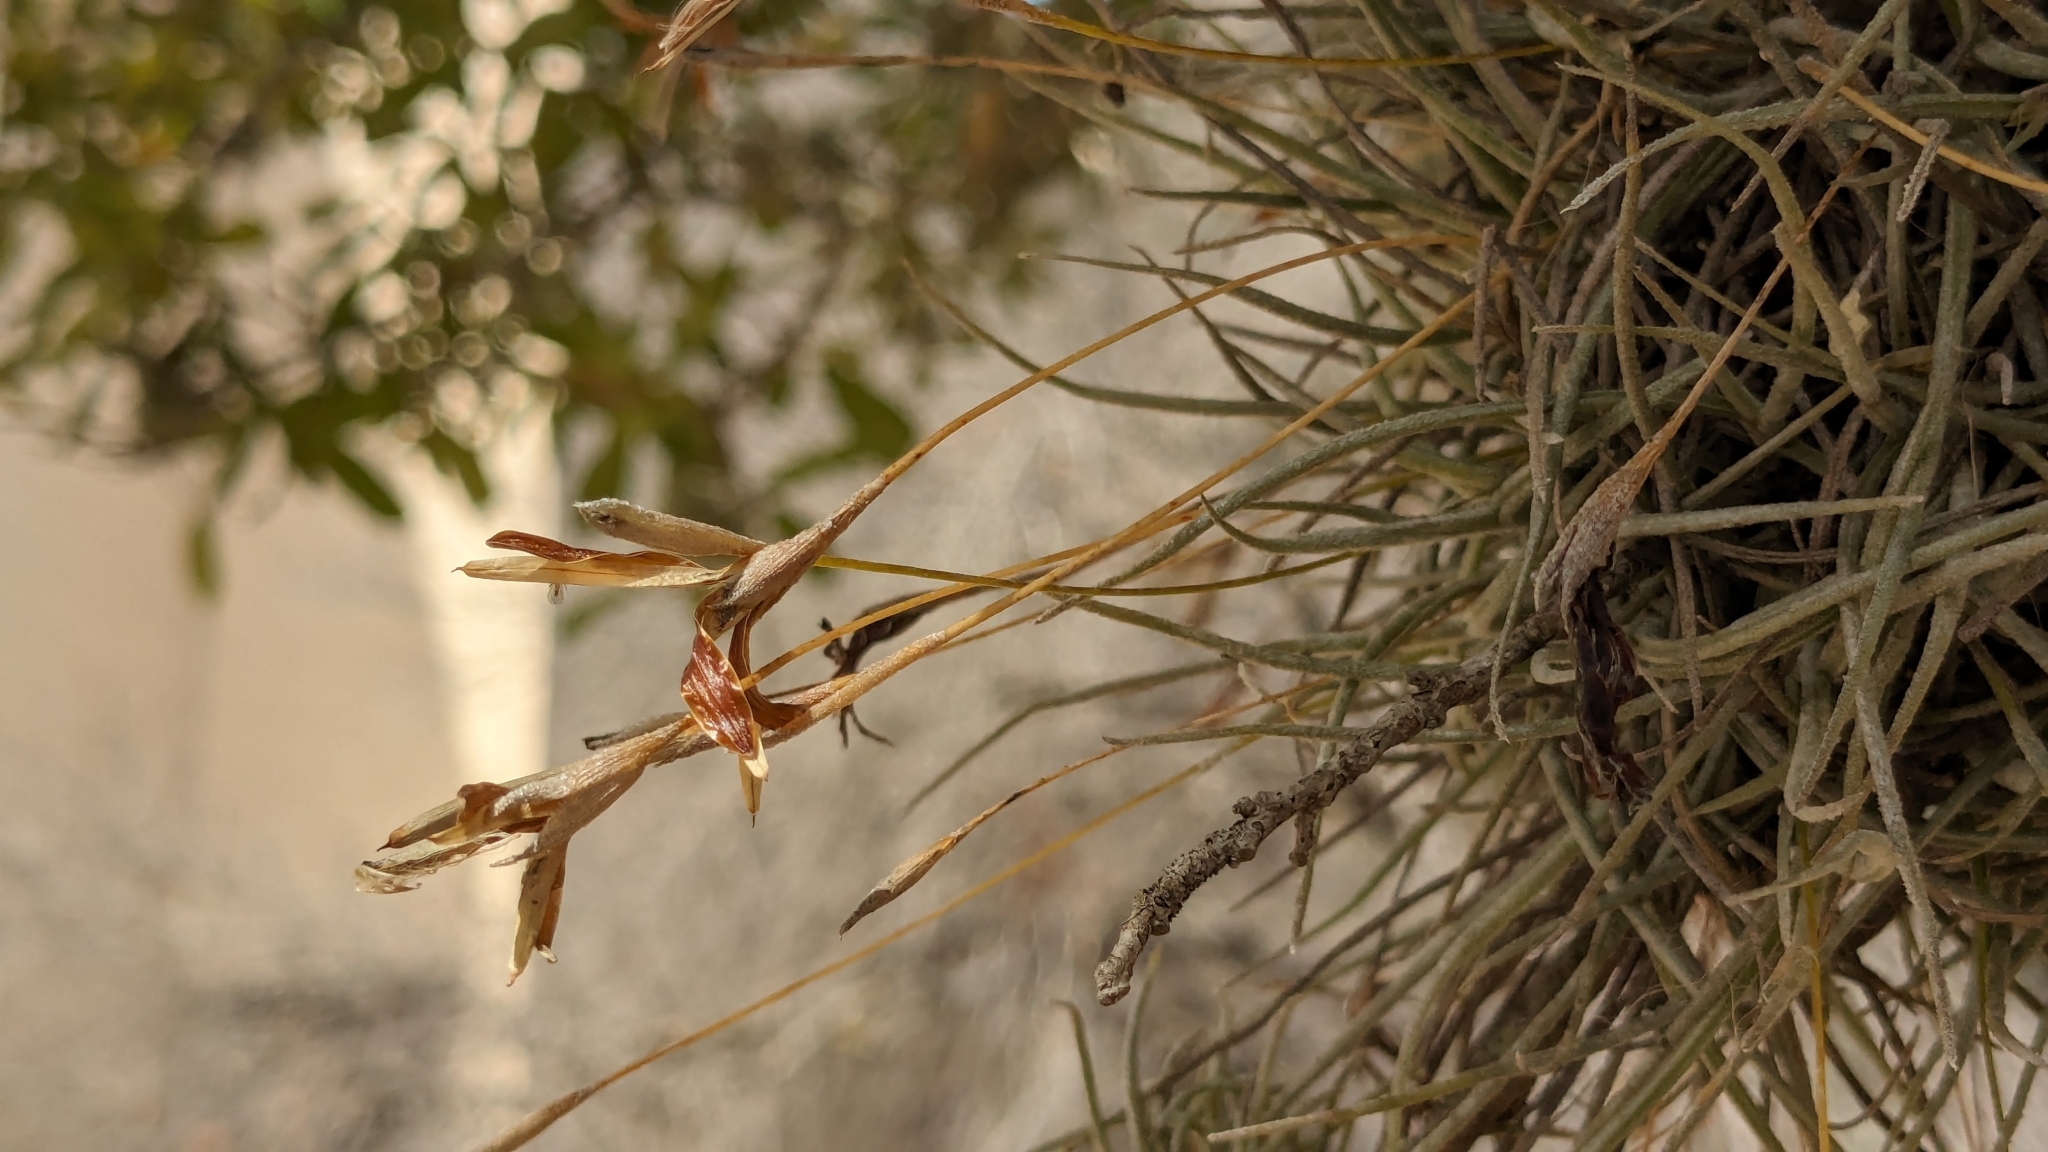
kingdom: Plantae
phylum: Tracheophyta
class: Liliopsida
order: Poales
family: Bromeliaceae
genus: Tillandsia
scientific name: Tillandsia recurvata
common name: Small ballmoss
